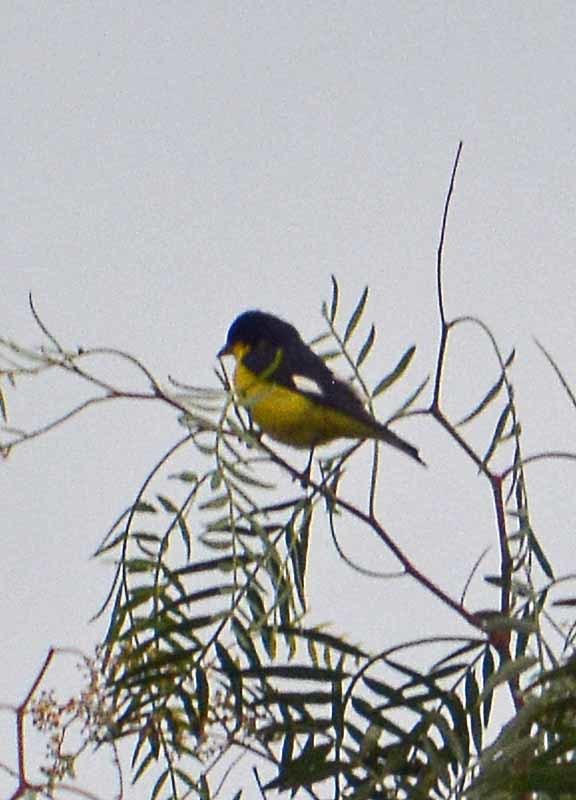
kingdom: Animalia
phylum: Chordata
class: Aves
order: Passeriformes
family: Fringillidae
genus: Spinus
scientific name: Spinus psaltria
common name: Lesser goldfinch
